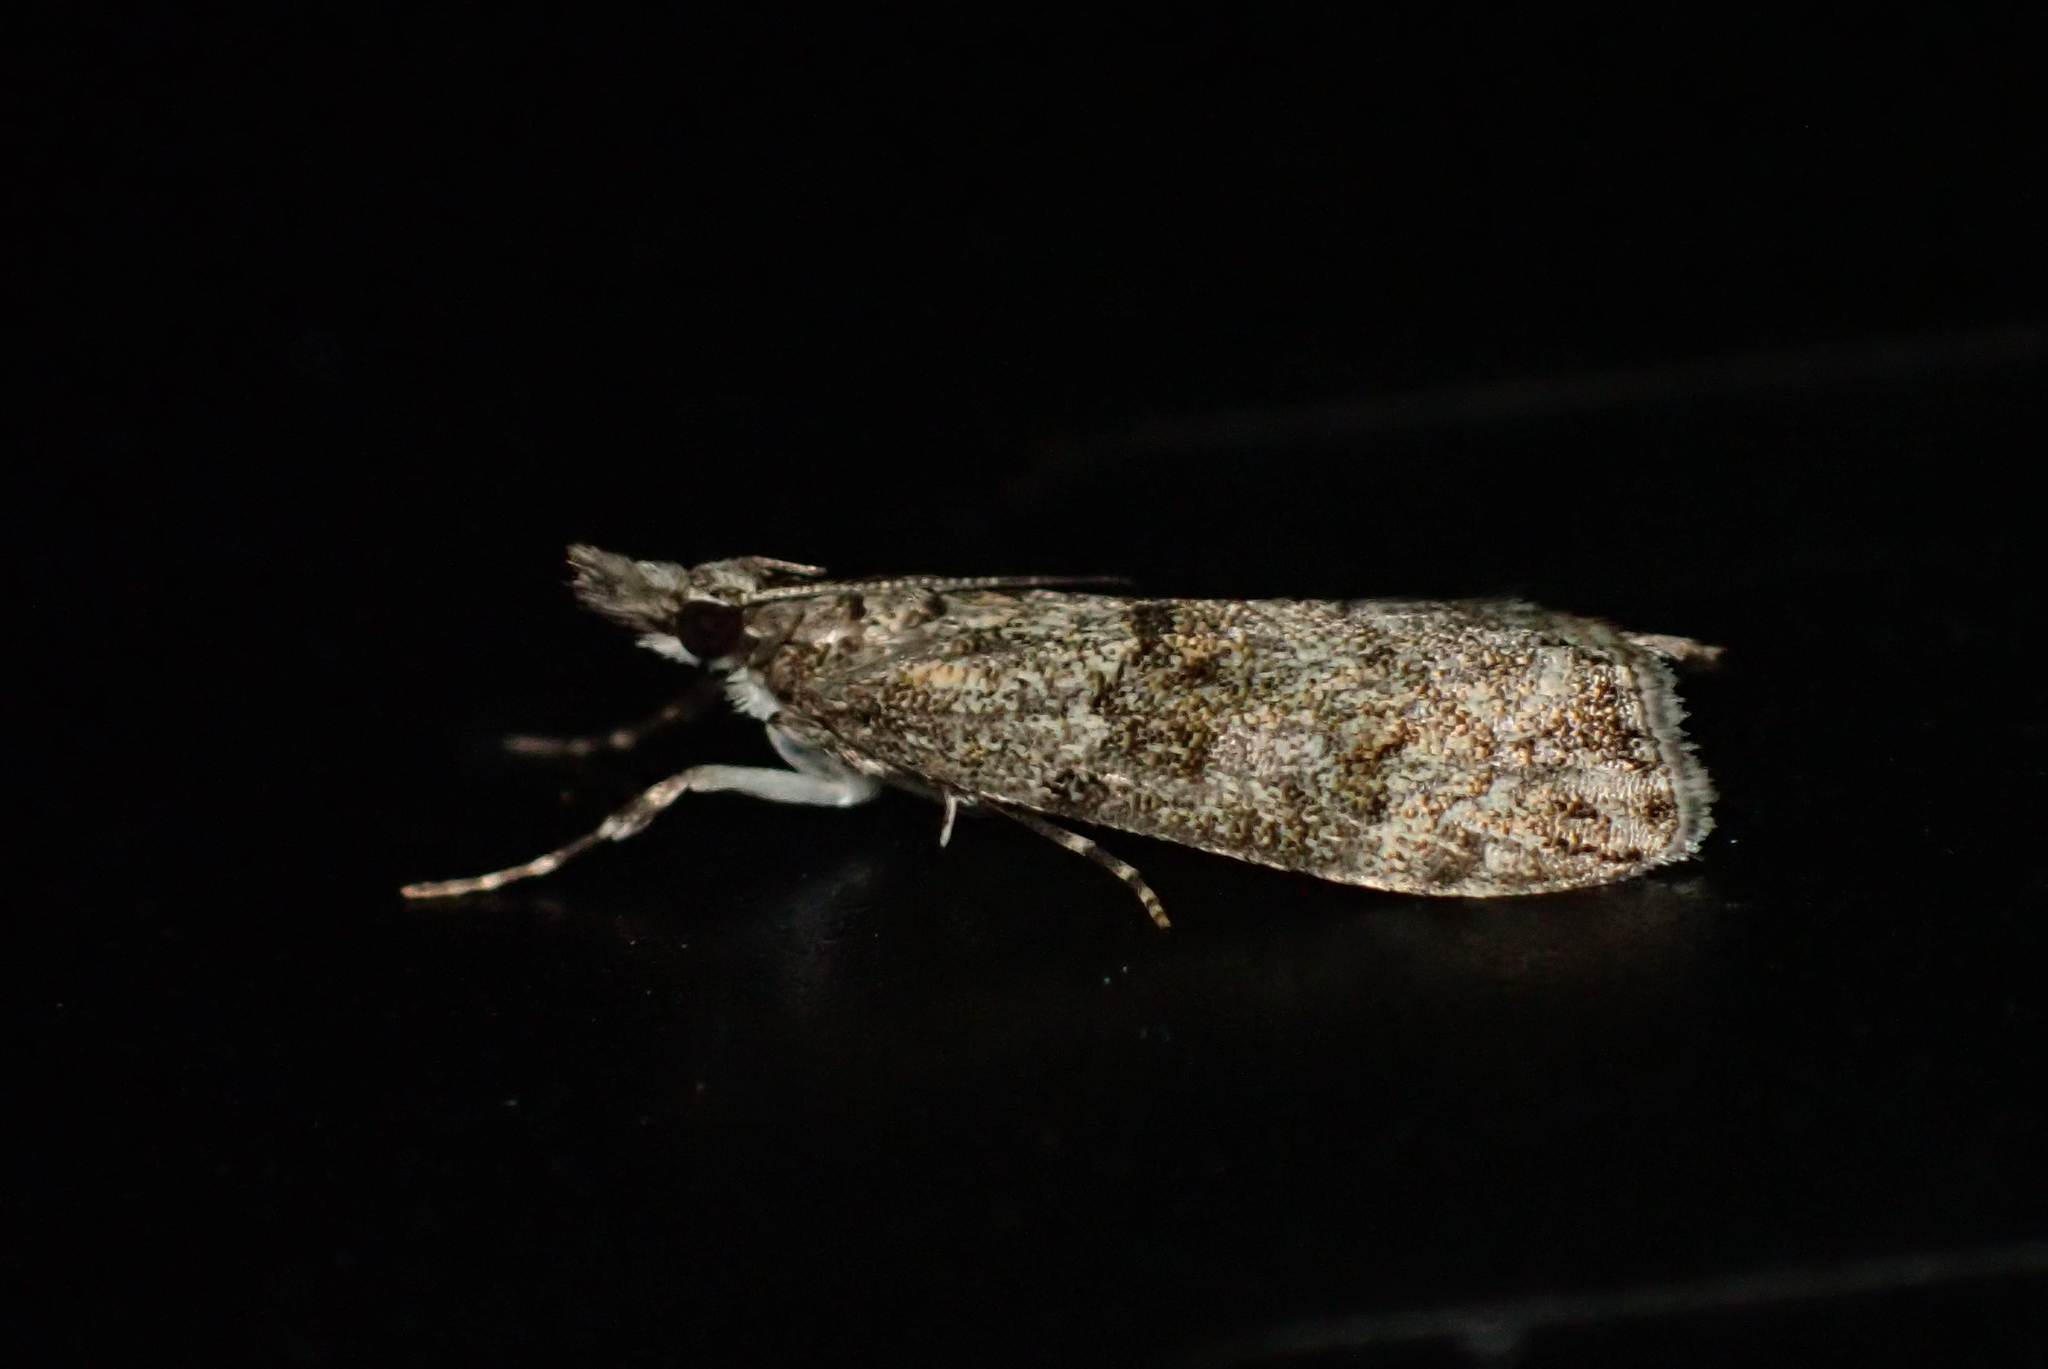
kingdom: Animalia
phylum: Arthropoda
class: Insecta
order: Lepidoptera
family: Crambidae
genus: Eudonia
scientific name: Eudonia subditella
